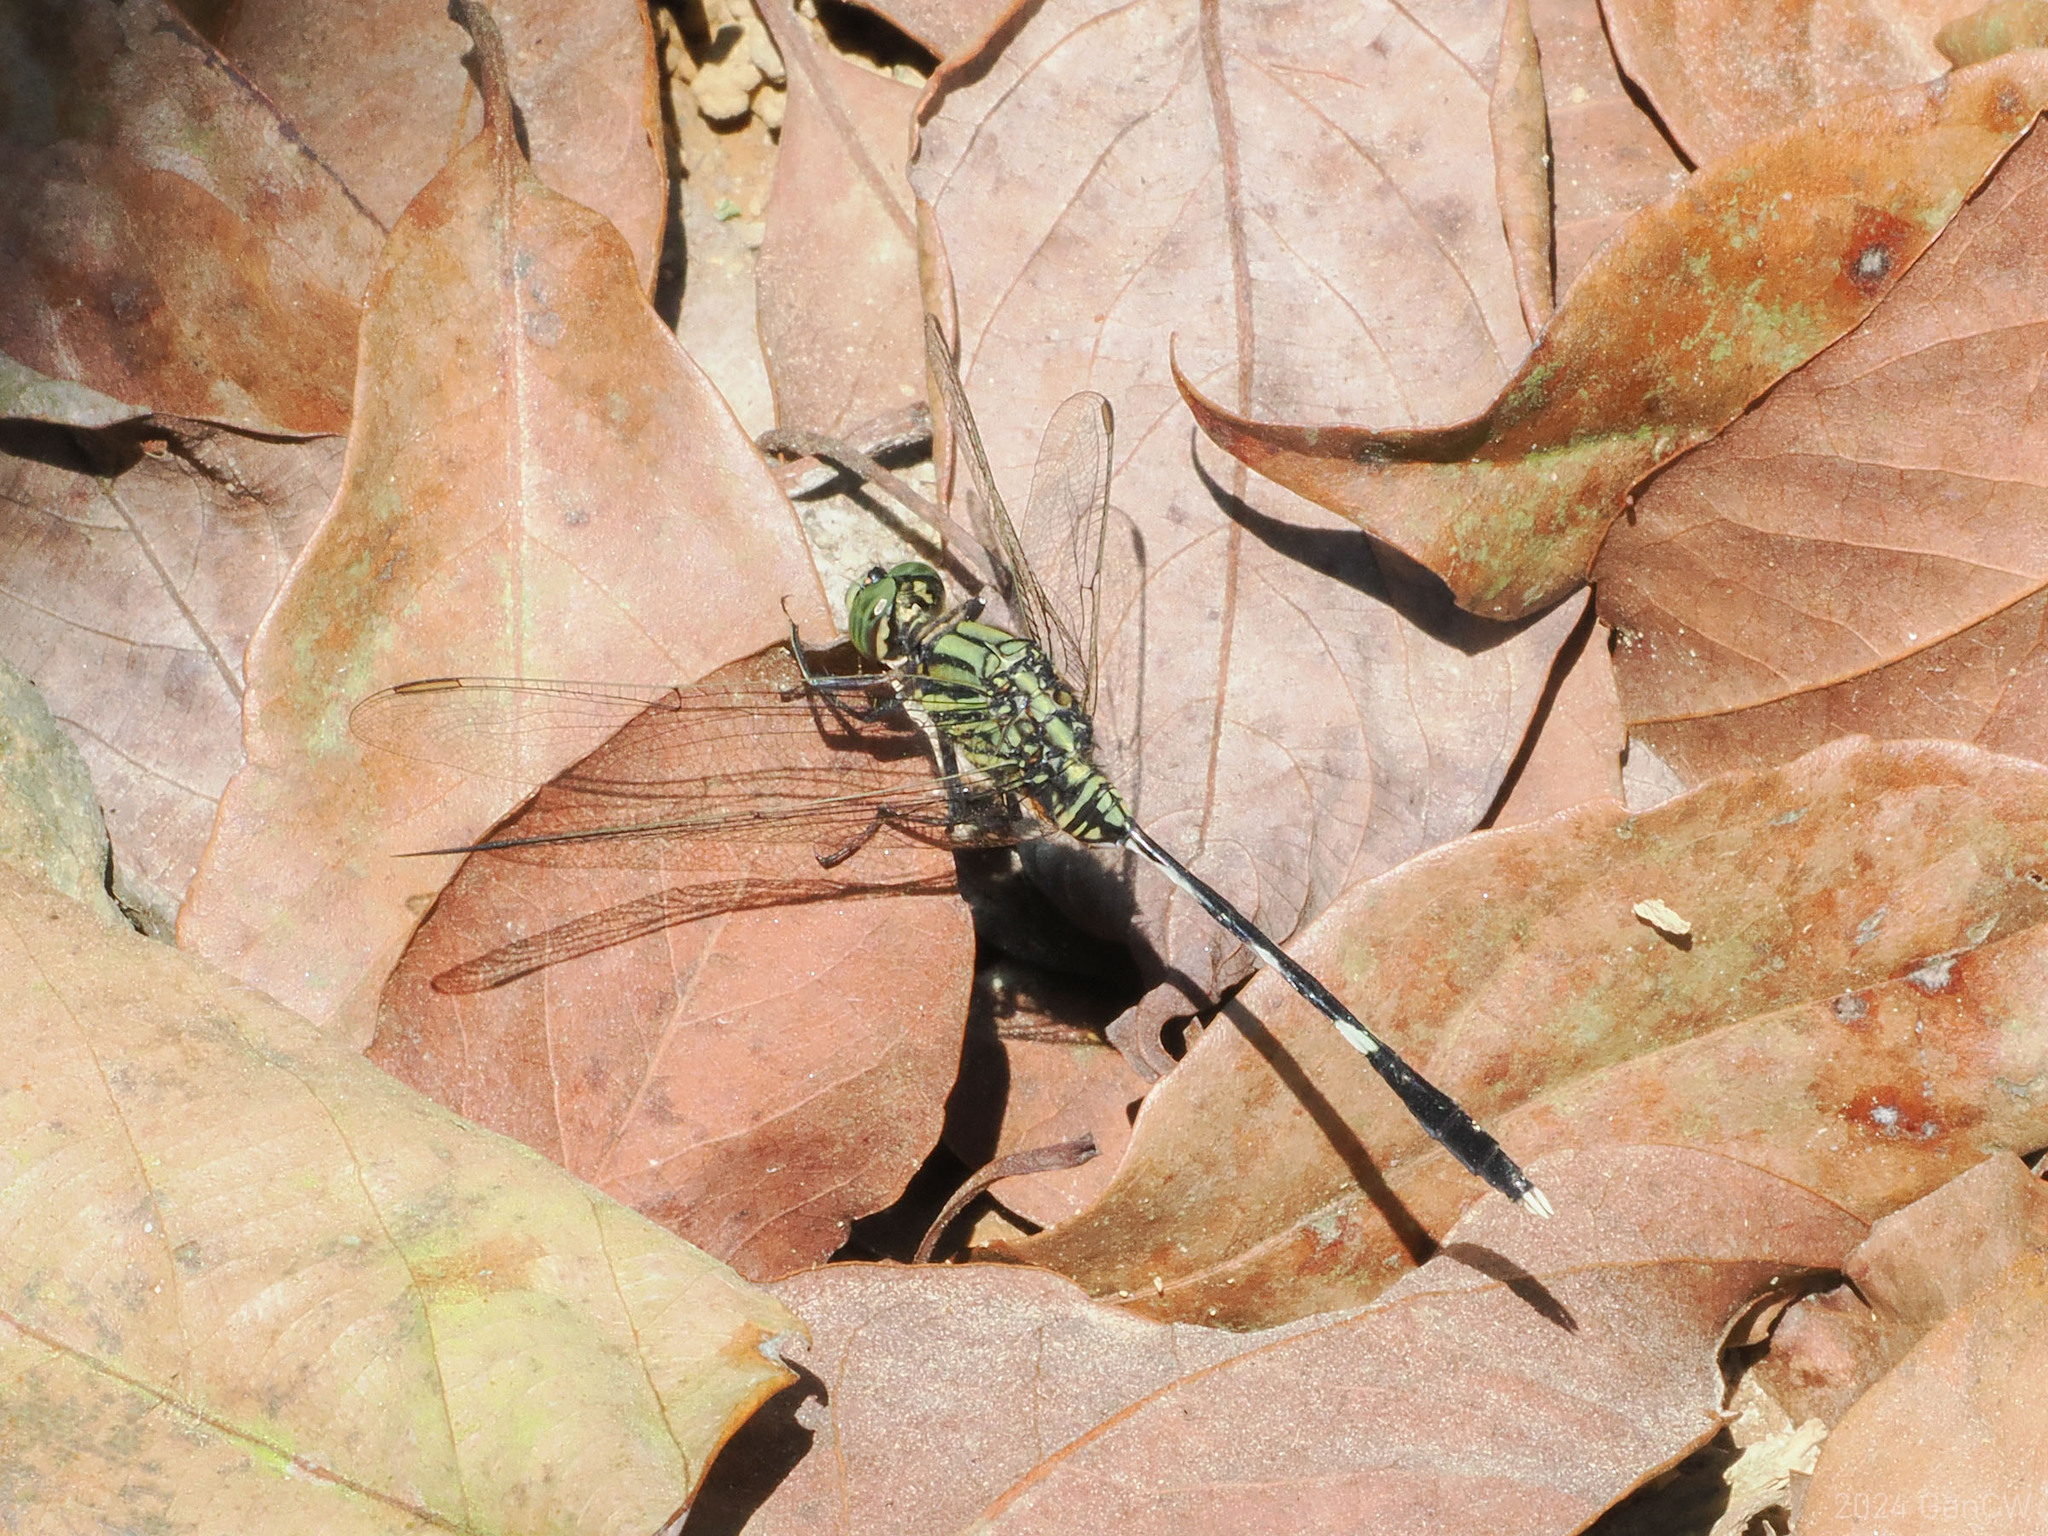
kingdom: Animalia
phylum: Arthropoda
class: Insecta
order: Odonata
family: Libellulidae
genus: Orthetrum
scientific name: Orthetrum sabina
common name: Slender skimmer
